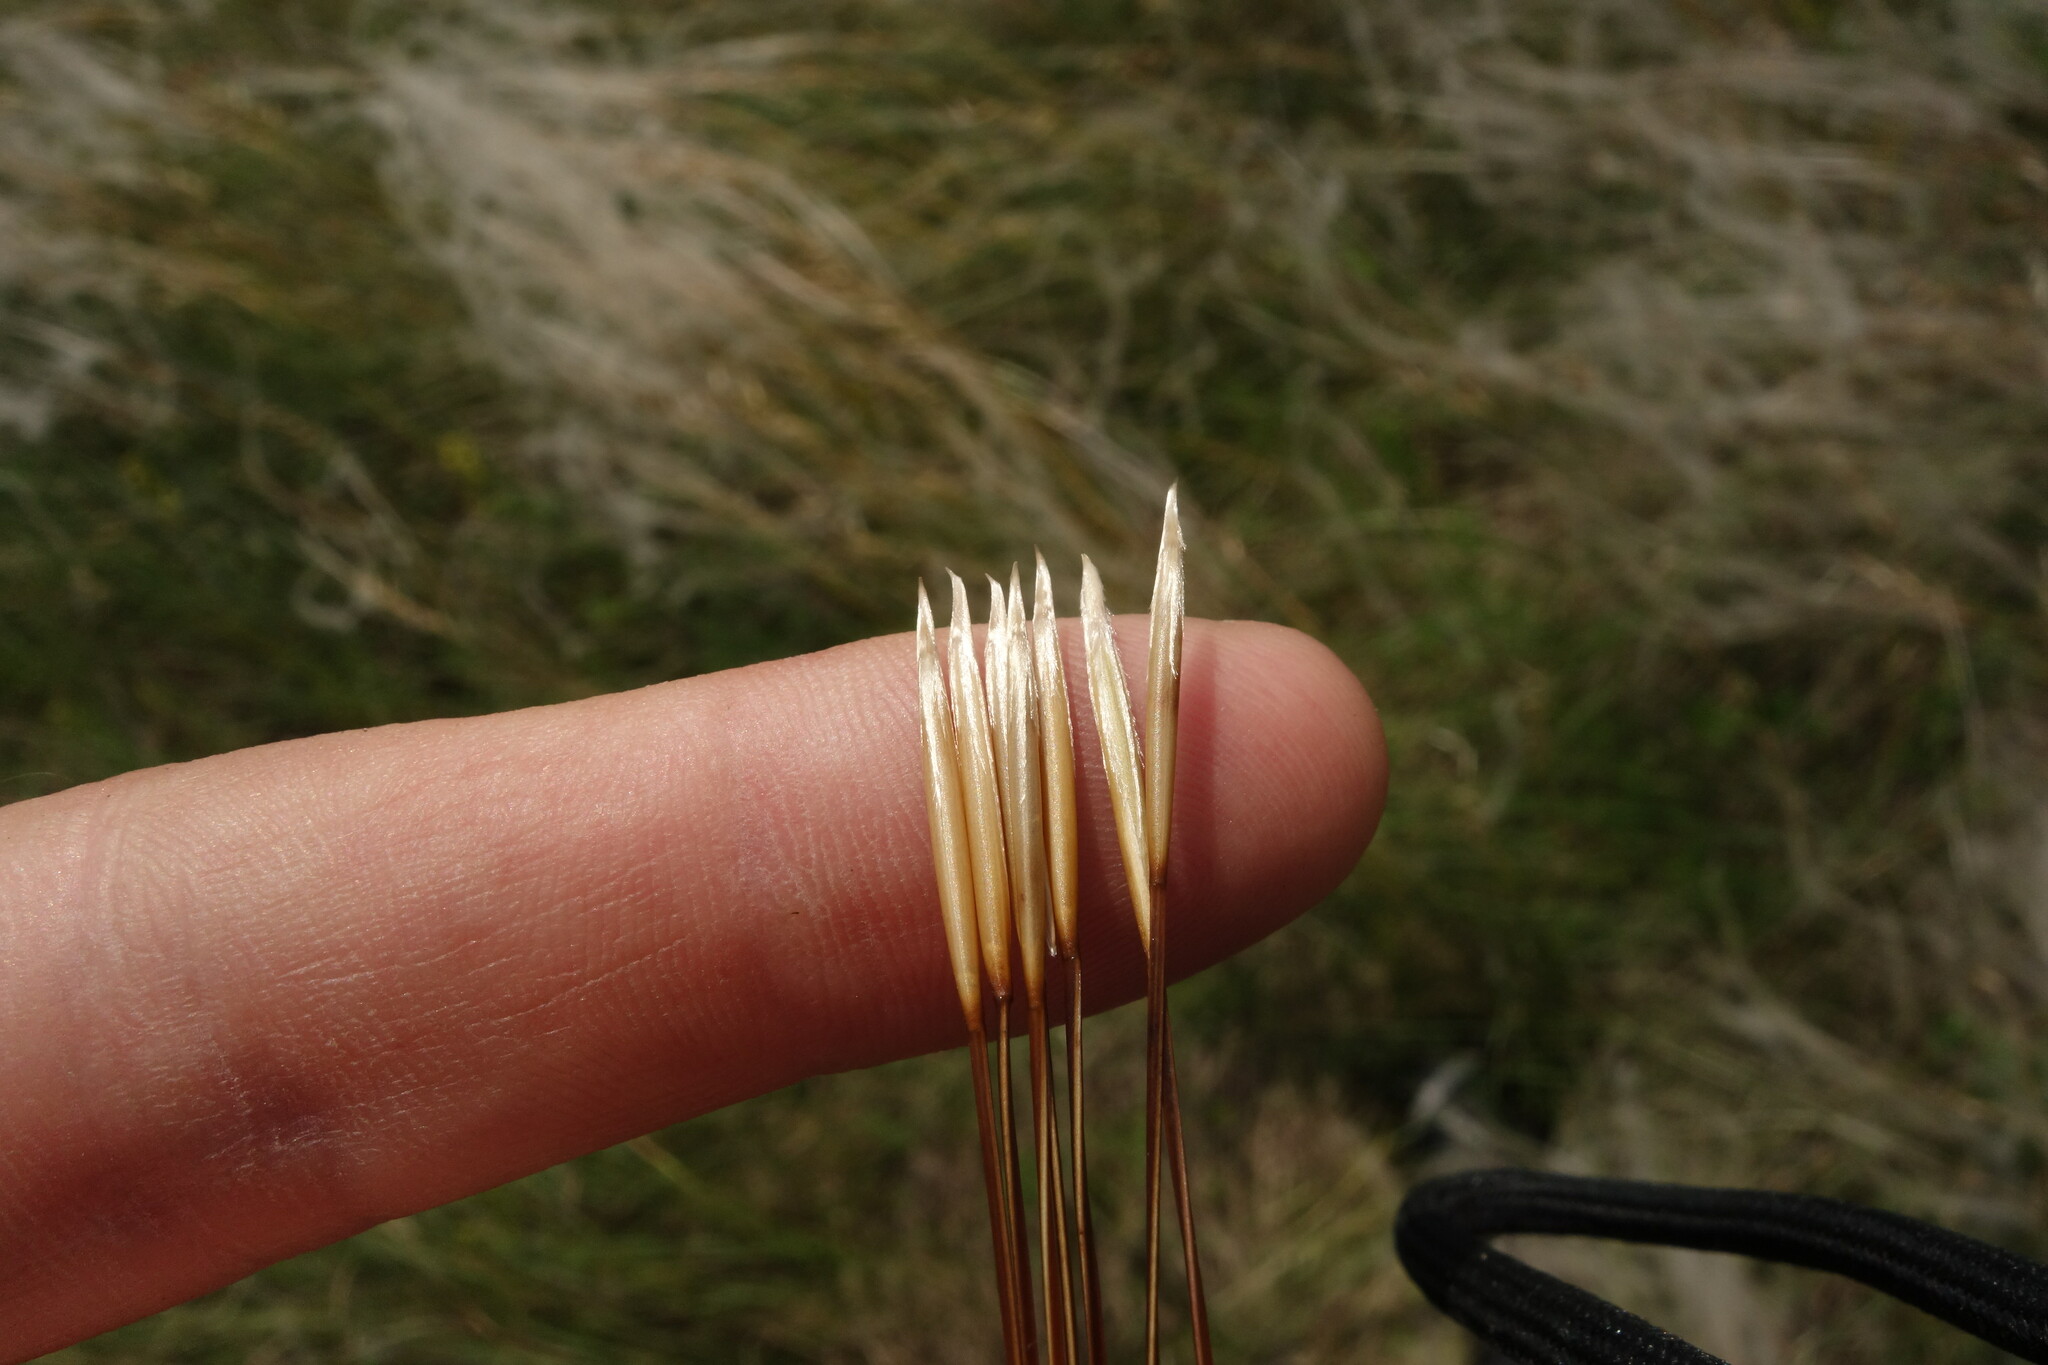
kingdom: Plantae
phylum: Tracheophyta
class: Liliopsida
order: Poales
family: Poaceae
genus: Stipa
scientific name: Stipa pennata
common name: European feather grass
